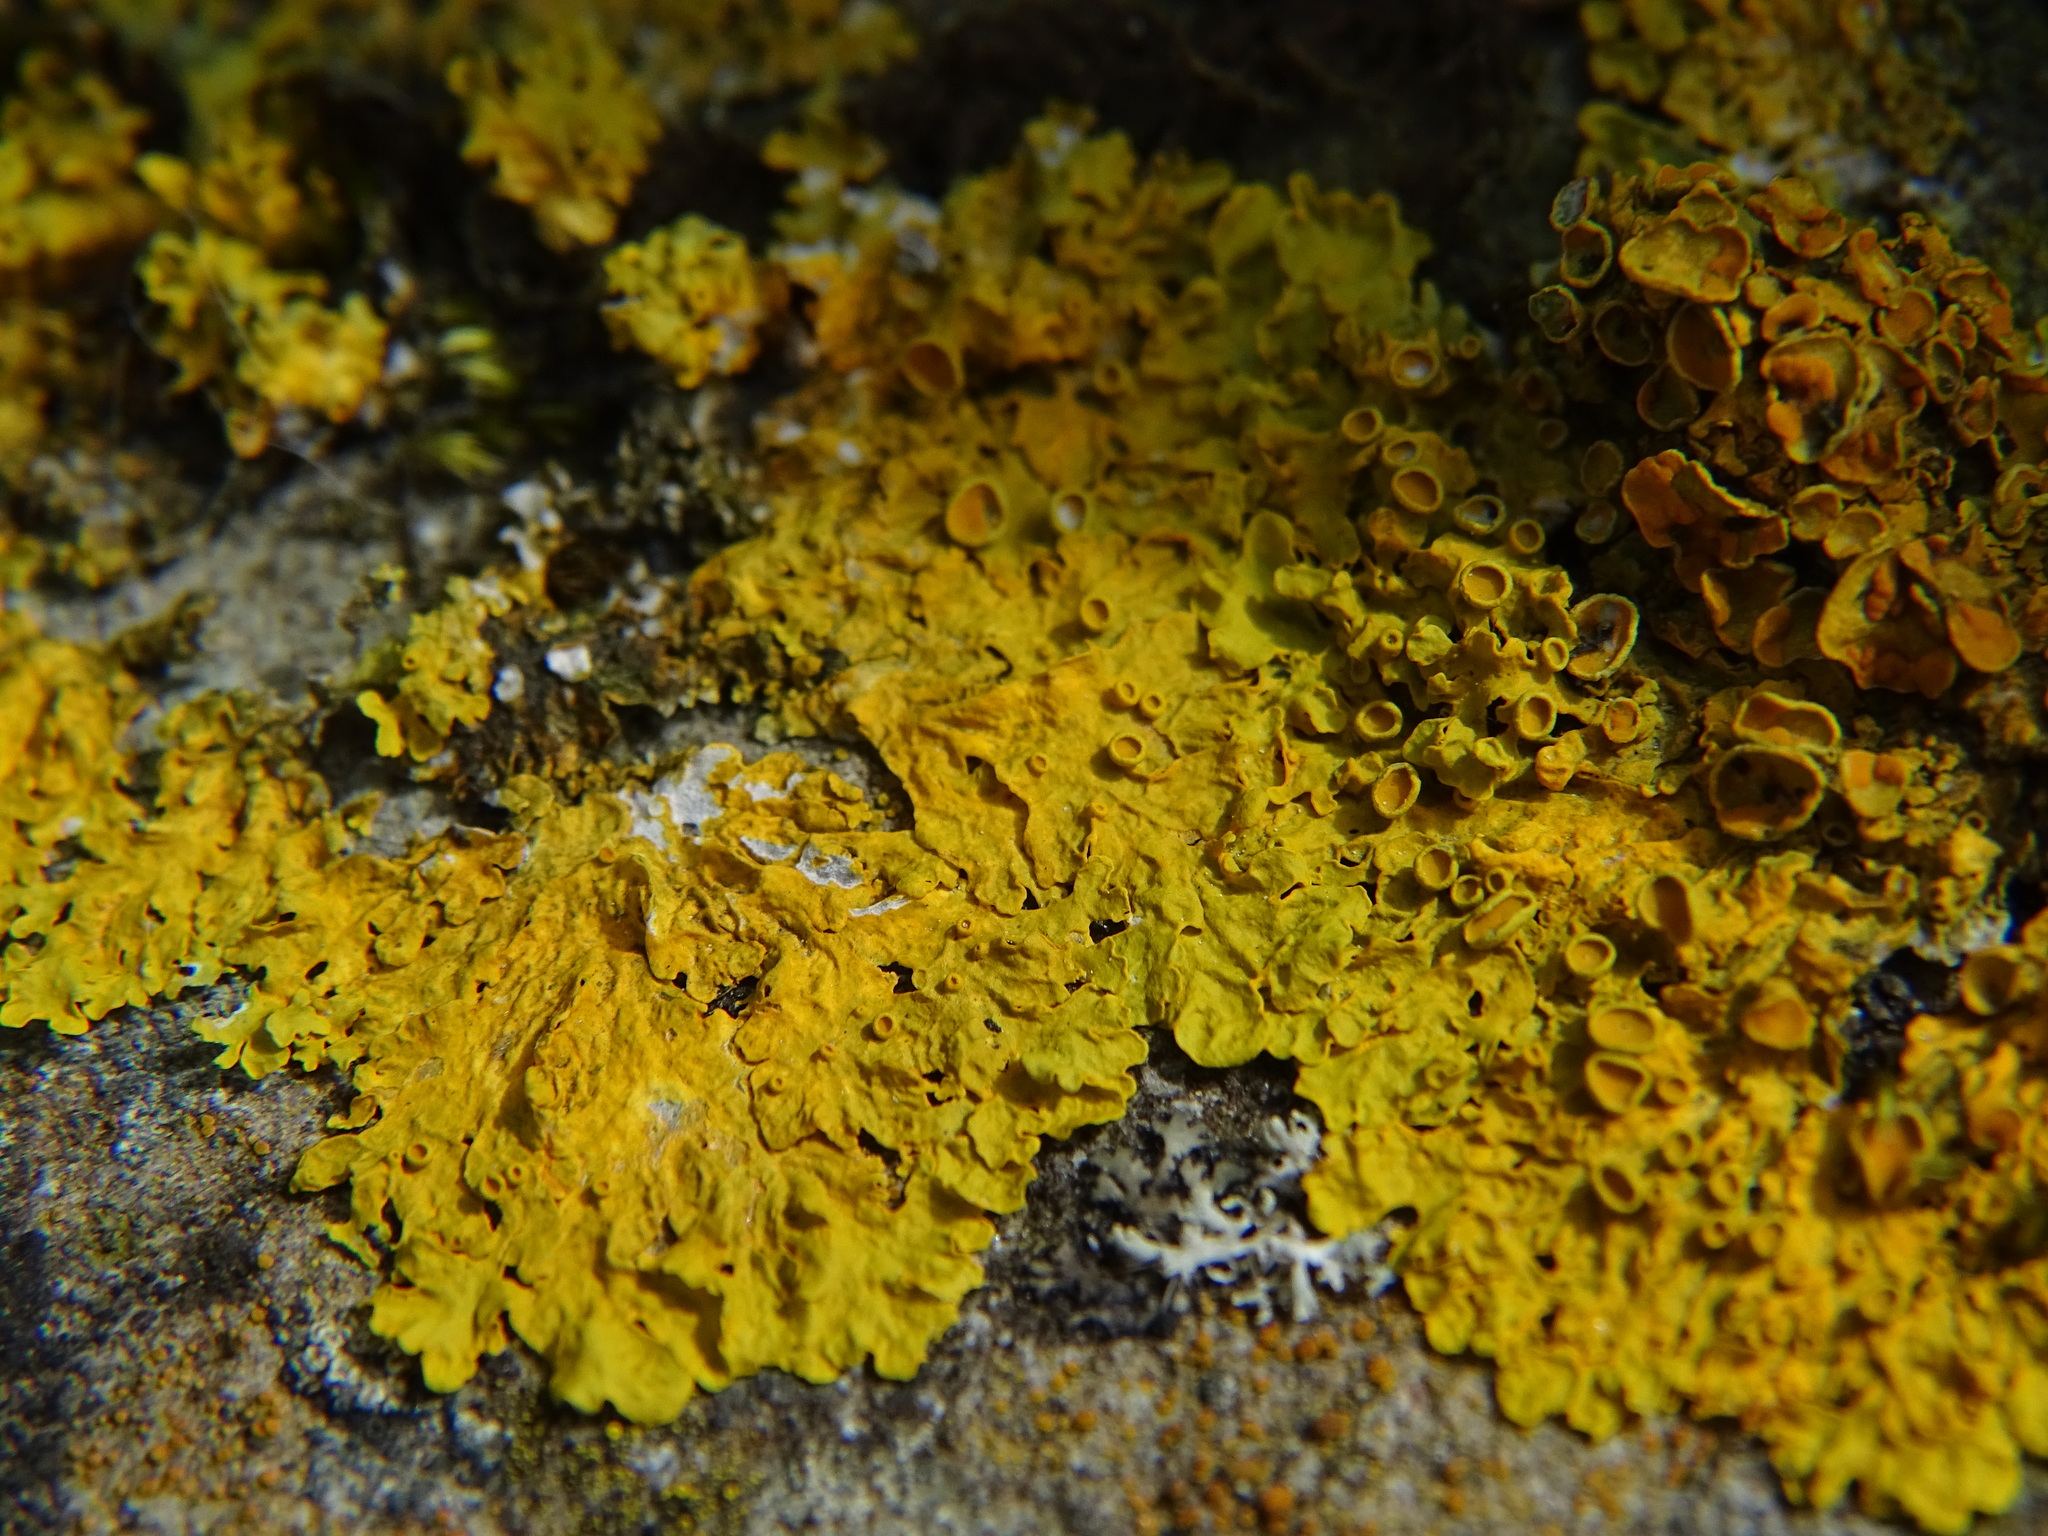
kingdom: Fungi
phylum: Ascomycota
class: Lecanoromycetes
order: Teloschistales
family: Teloschistaceae
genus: Xanthoria
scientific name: Xanthoria parietina
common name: Common orange lichen
